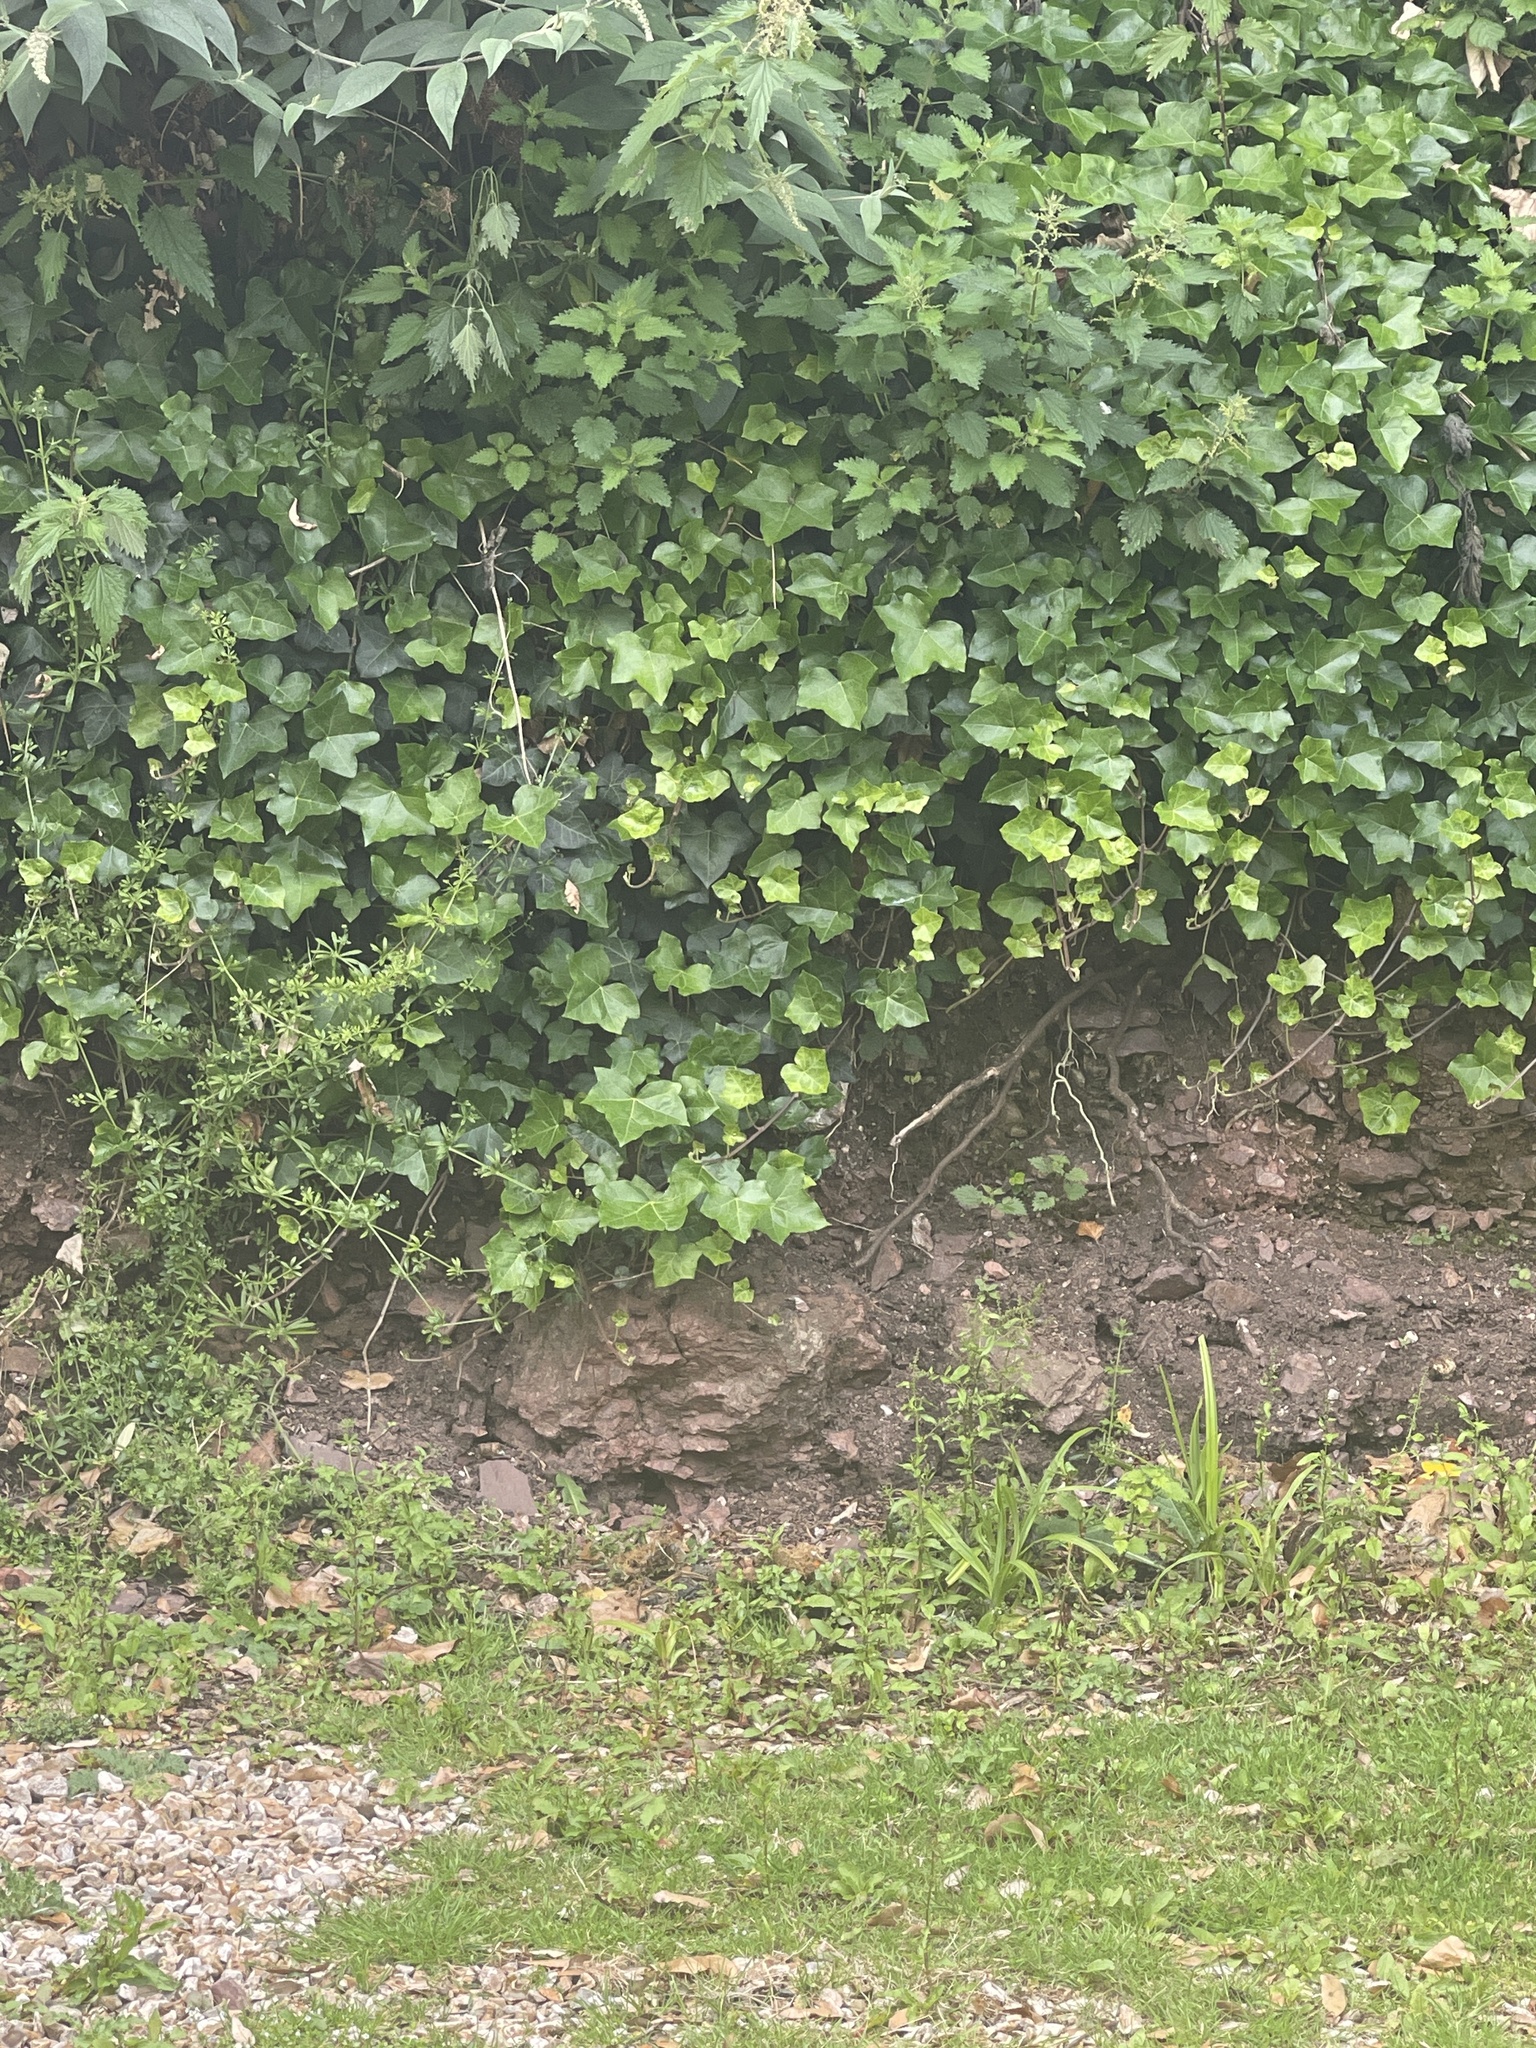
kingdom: Plantae
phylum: Tracheophyta
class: Magnoliopsida
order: Apiales
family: Araliaceae
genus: Hedera
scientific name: Hedera helix
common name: Ivy
